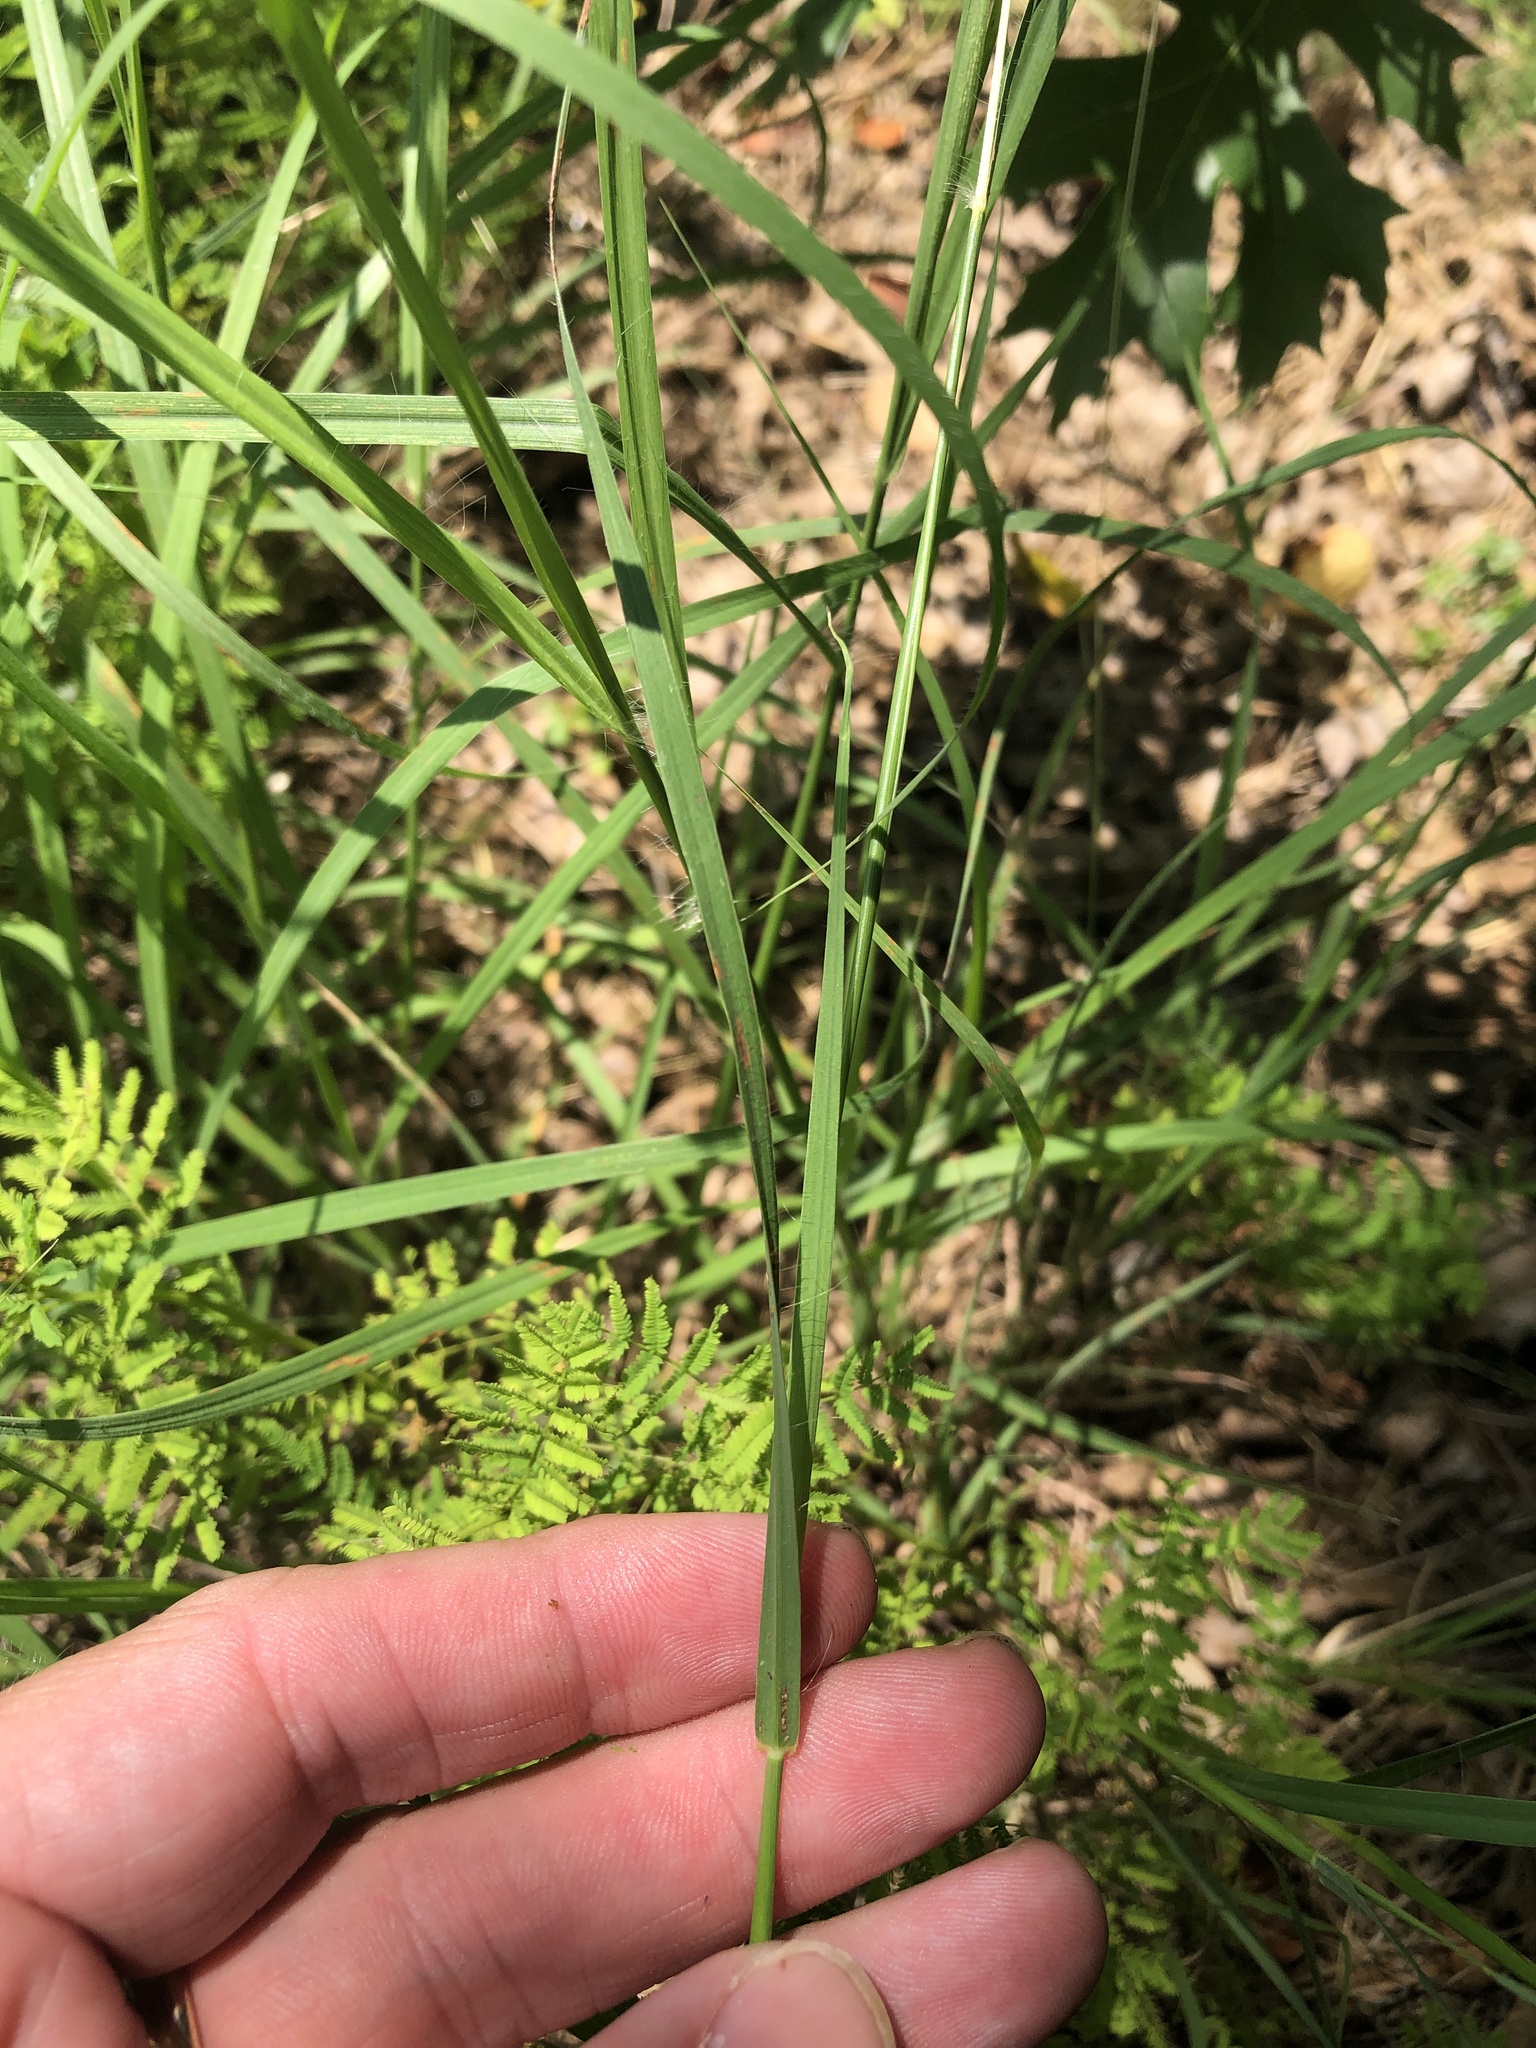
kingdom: Plantae
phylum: Tracheophyta
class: Liliopsida
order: Poales
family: Poaceae
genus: Bothriochloa
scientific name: Bothriochloa ischaemum
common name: Yellow bluestem
